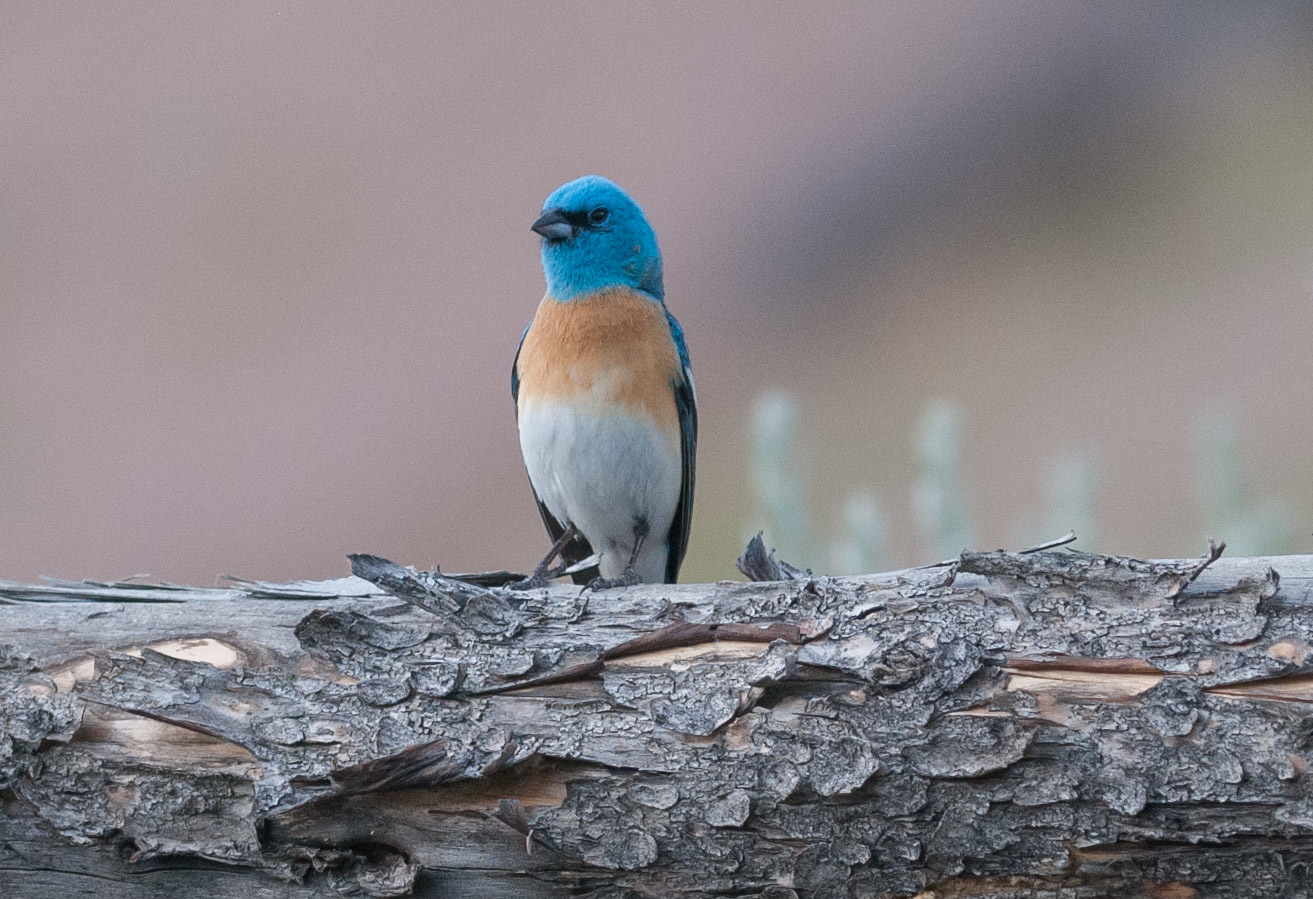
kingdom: Animalia
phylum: Chordata
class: Aves
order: Passeriformes
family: Cardinalidae
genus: Passerina
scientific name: Passerina amoena
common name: Lazuli bunting
